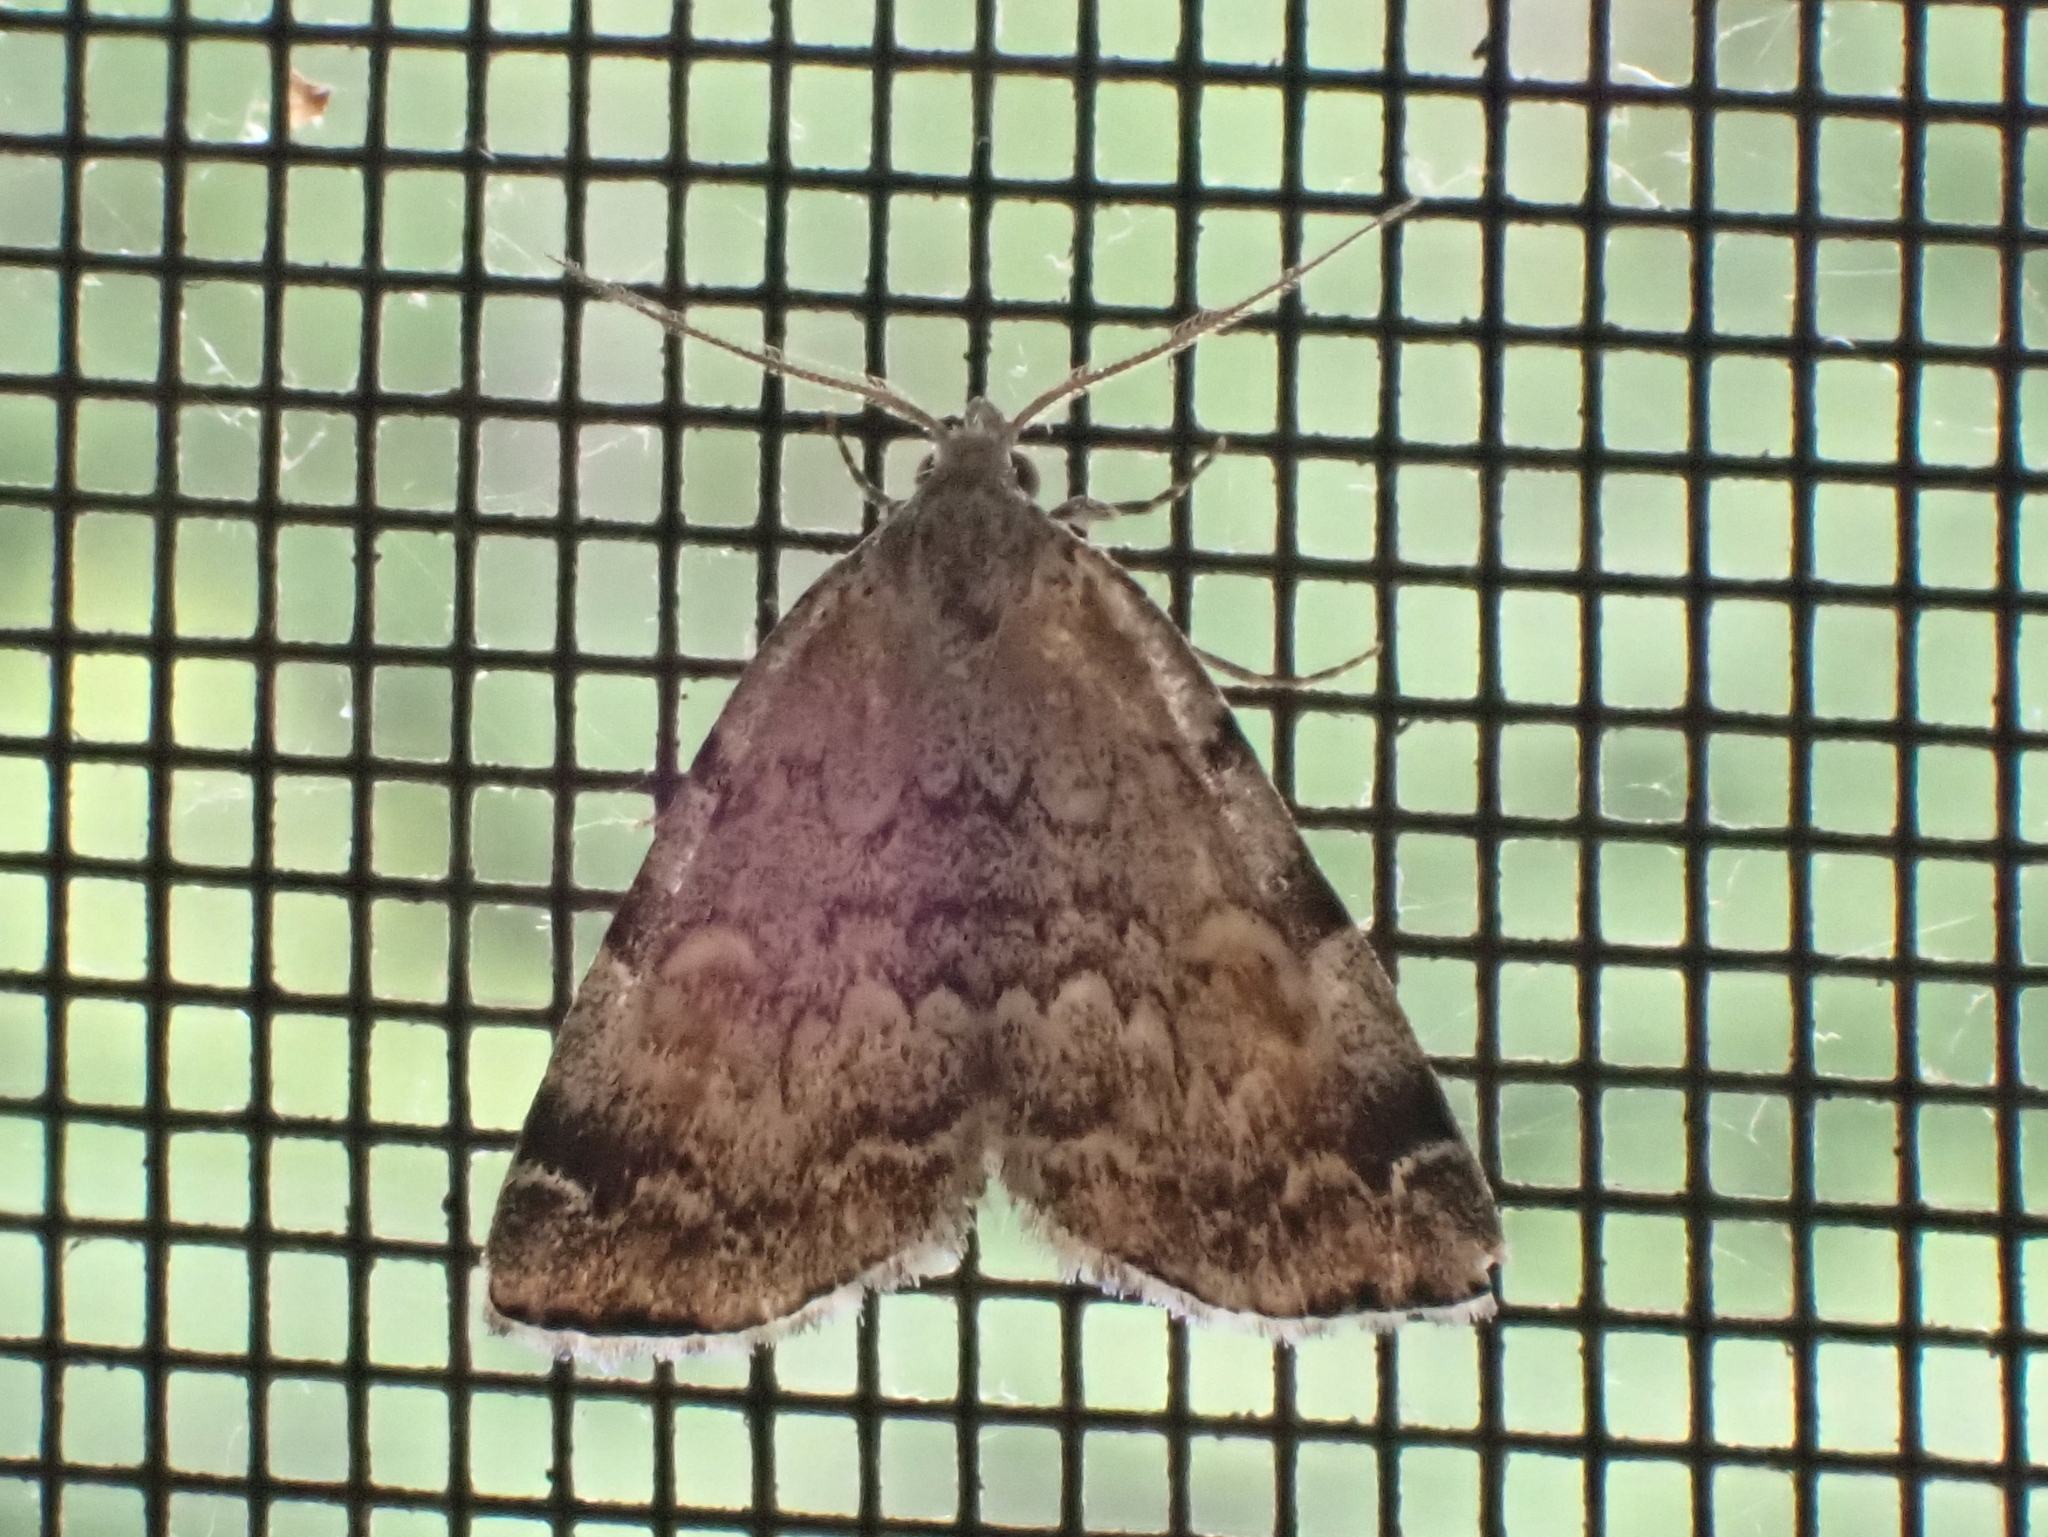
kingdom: Animalia
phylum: Arthropoda
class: Insecta
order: Lepidoptera
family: Erebidae
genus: Idia
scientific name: Idia americalis
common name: American idia moth
